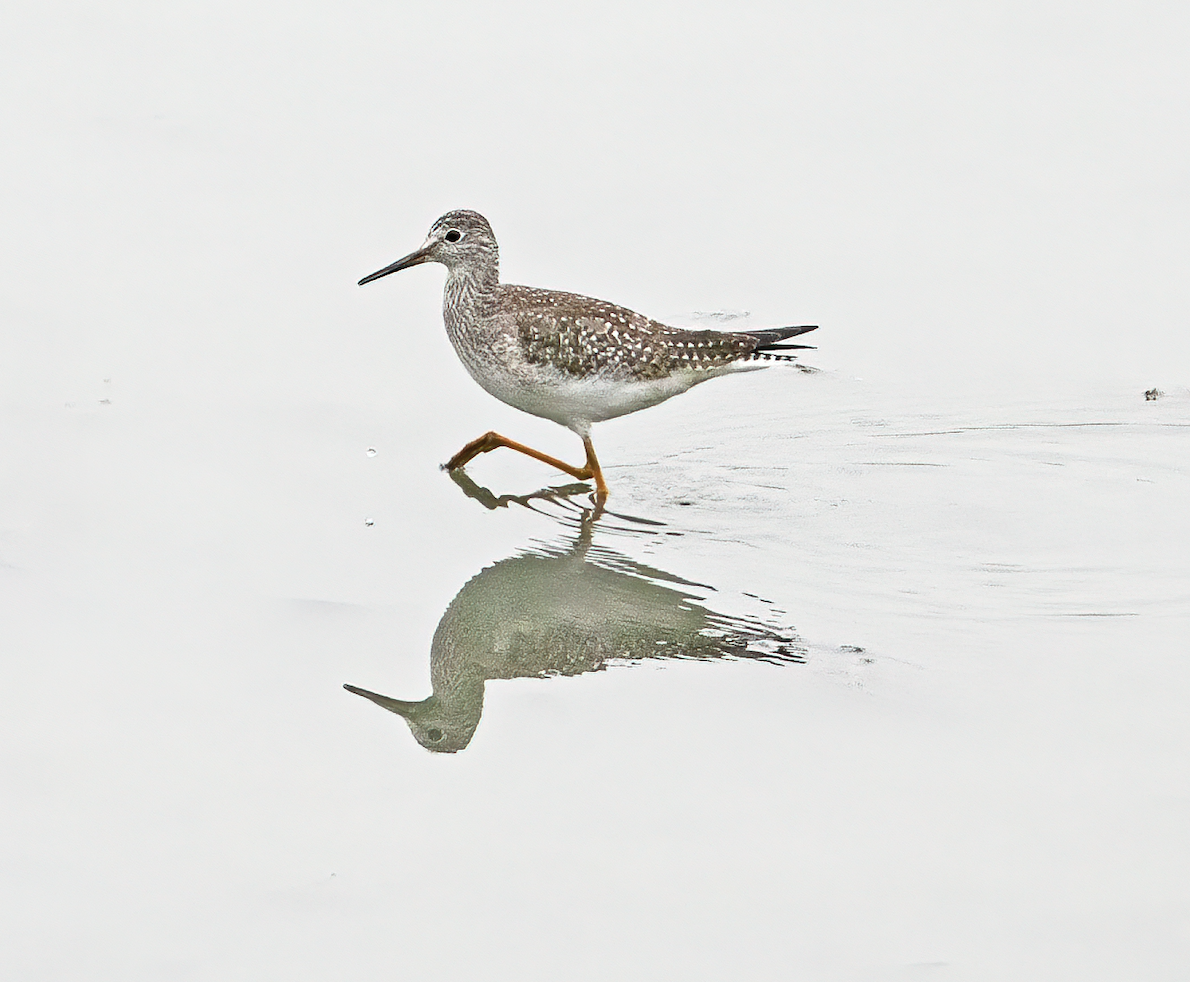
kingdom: Animalia
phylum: Chordata
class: Aves
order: Charadriiformes
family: Scolopacidae
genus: Tringa
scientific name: Tringa flavipes
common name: Lesser yellowlegs
